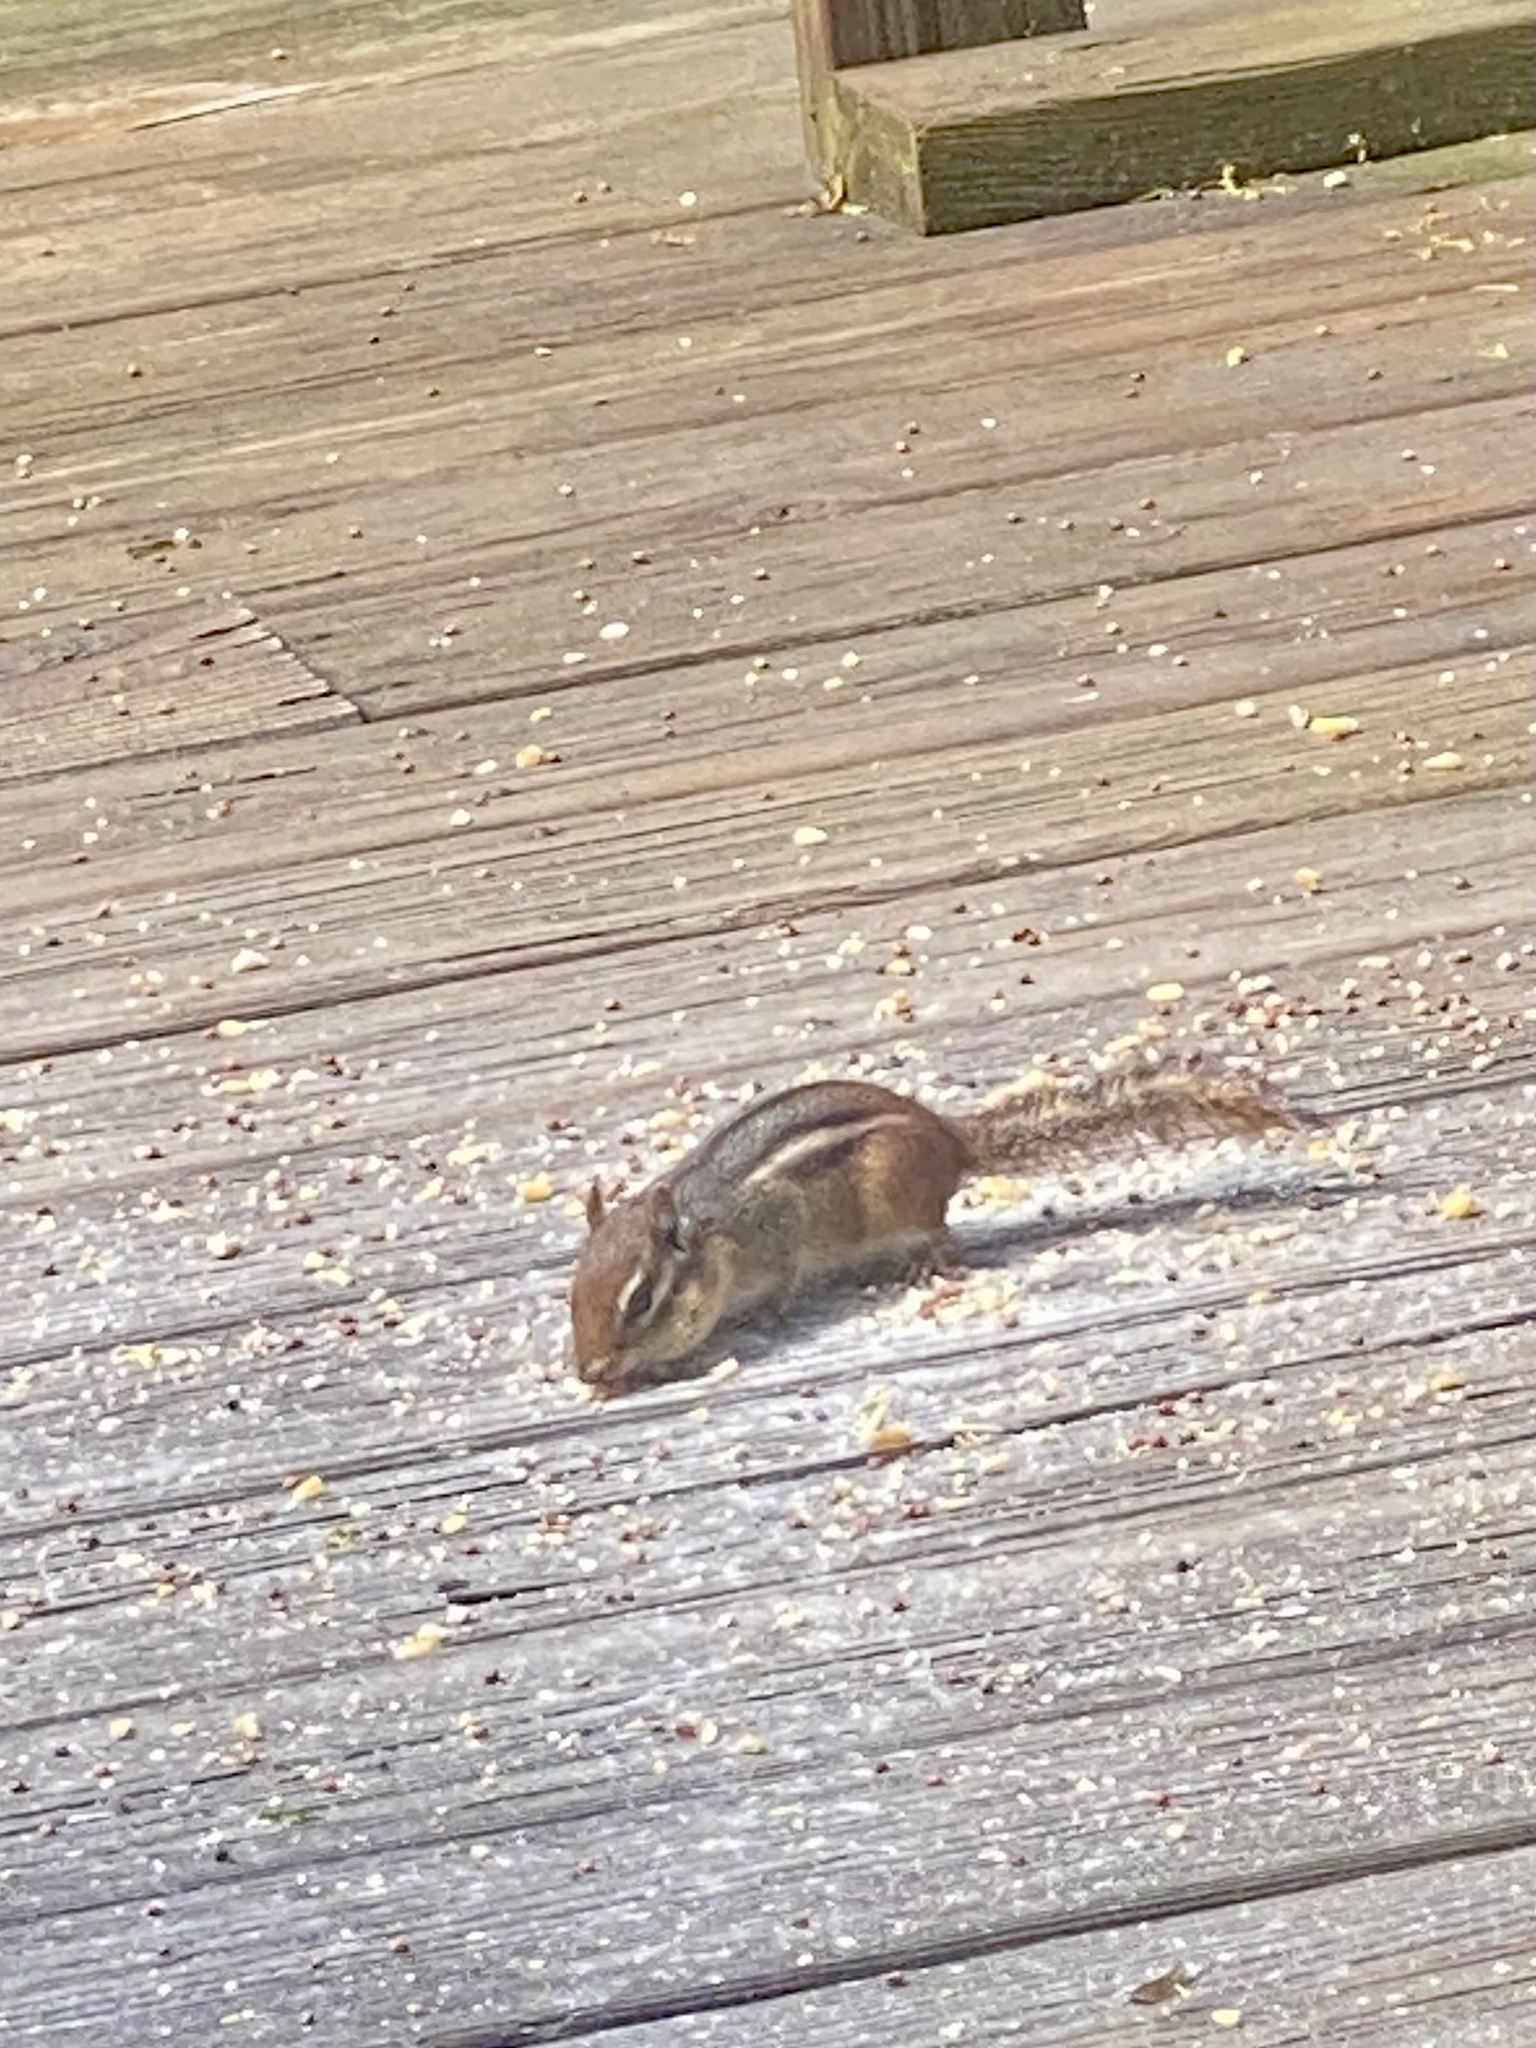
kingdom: Animalia
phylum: Chordata
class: Mammalia
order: Rodentia
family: Sciuridae
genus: Tamias
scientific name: Tamias striatus
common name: Eastern chipmunk
